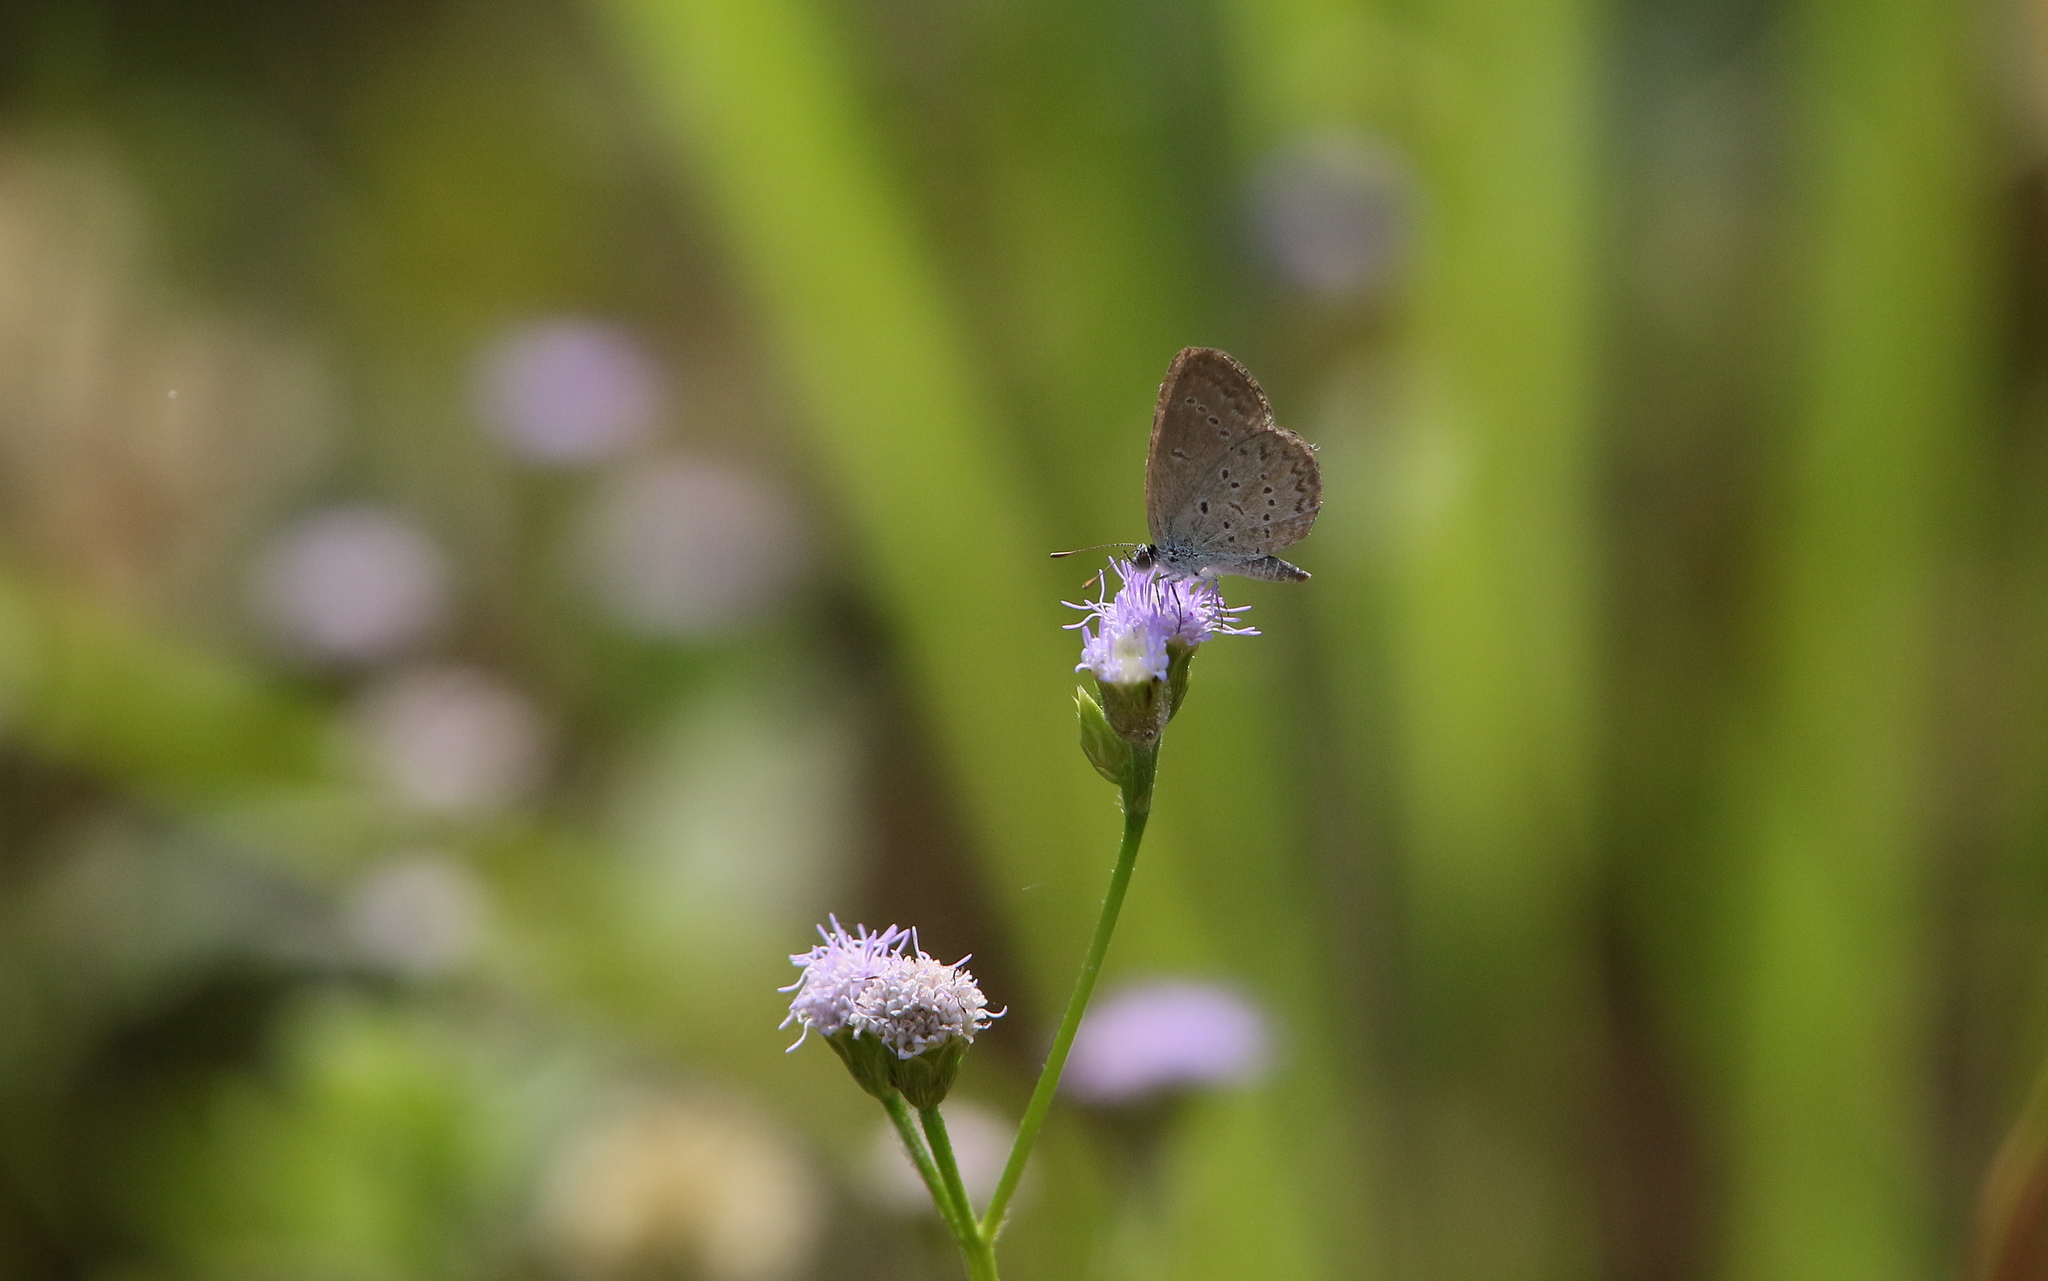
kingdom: Animalia
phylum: Arthropoda
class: Insecta
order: Lepidoptera
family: Lycaenidae
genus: Zizina
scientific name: Zizina otis
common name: Lesser grass blue
